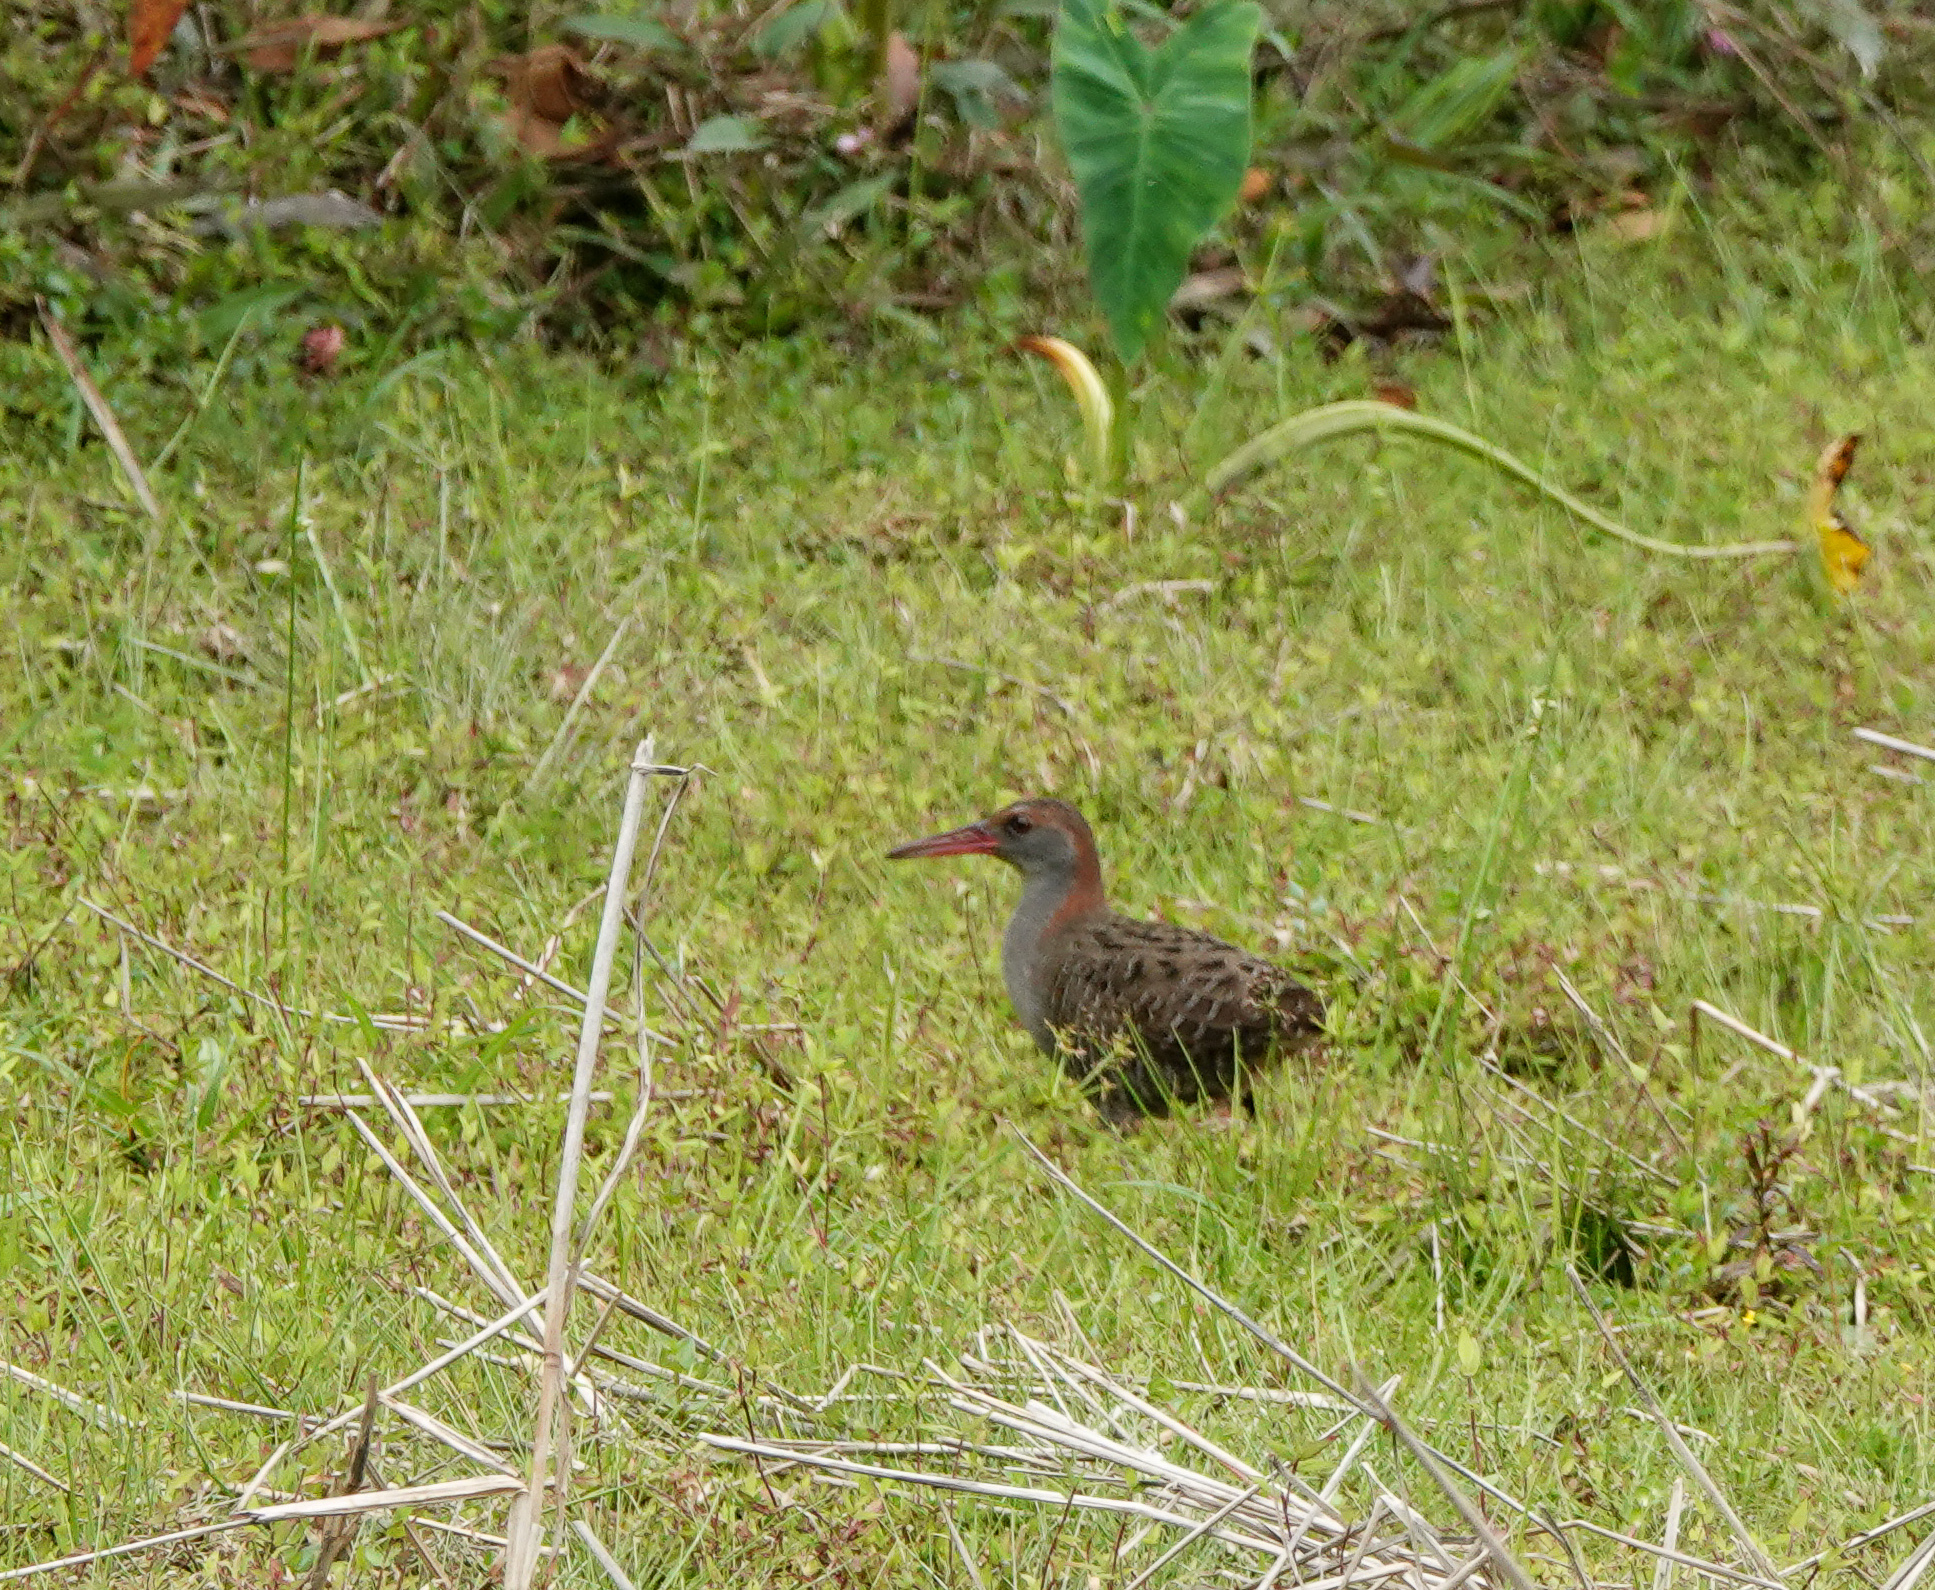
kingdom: Animalia
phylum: Chordata
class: Aves
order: Gruiformes
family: Rallidae
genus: Gallirallus
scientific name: Gallirallus striatus
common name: Slaty-breasted rail
